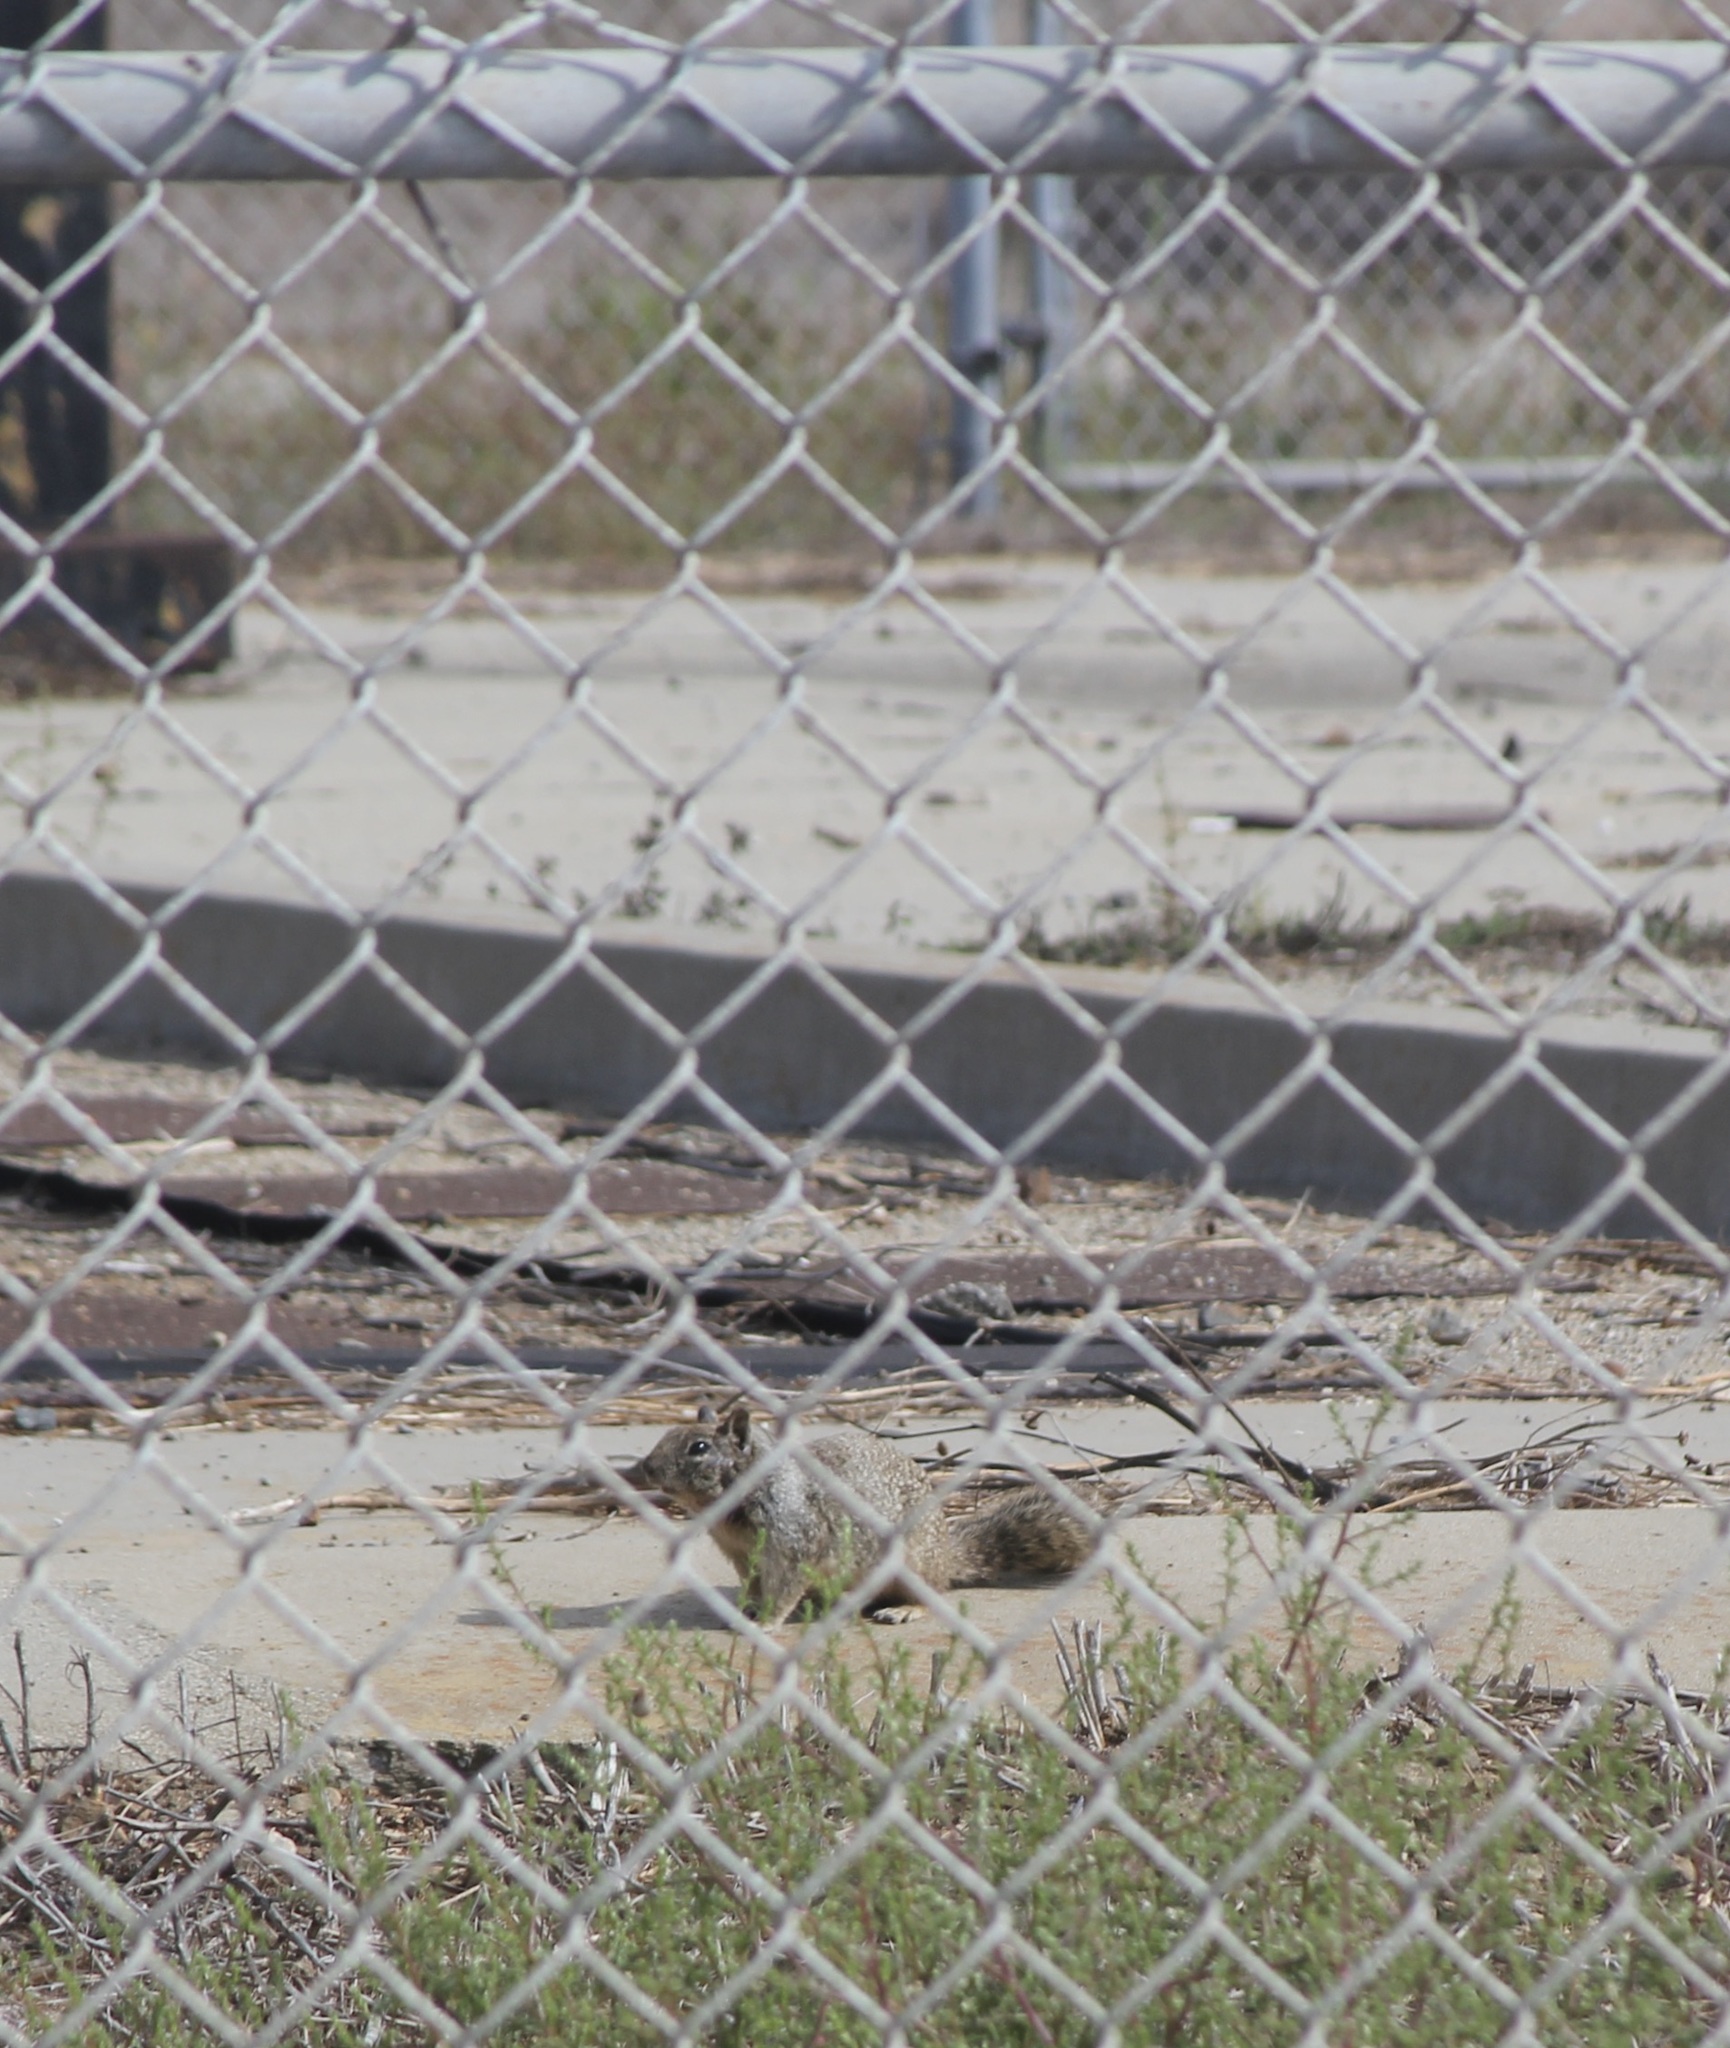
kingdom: Animalia
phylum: Chordata
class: Mammalia
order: Rodentia
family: Sciuridae
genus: Otospermophilus
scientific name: Otospermophilus beecheyi
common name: California ground squirrel
